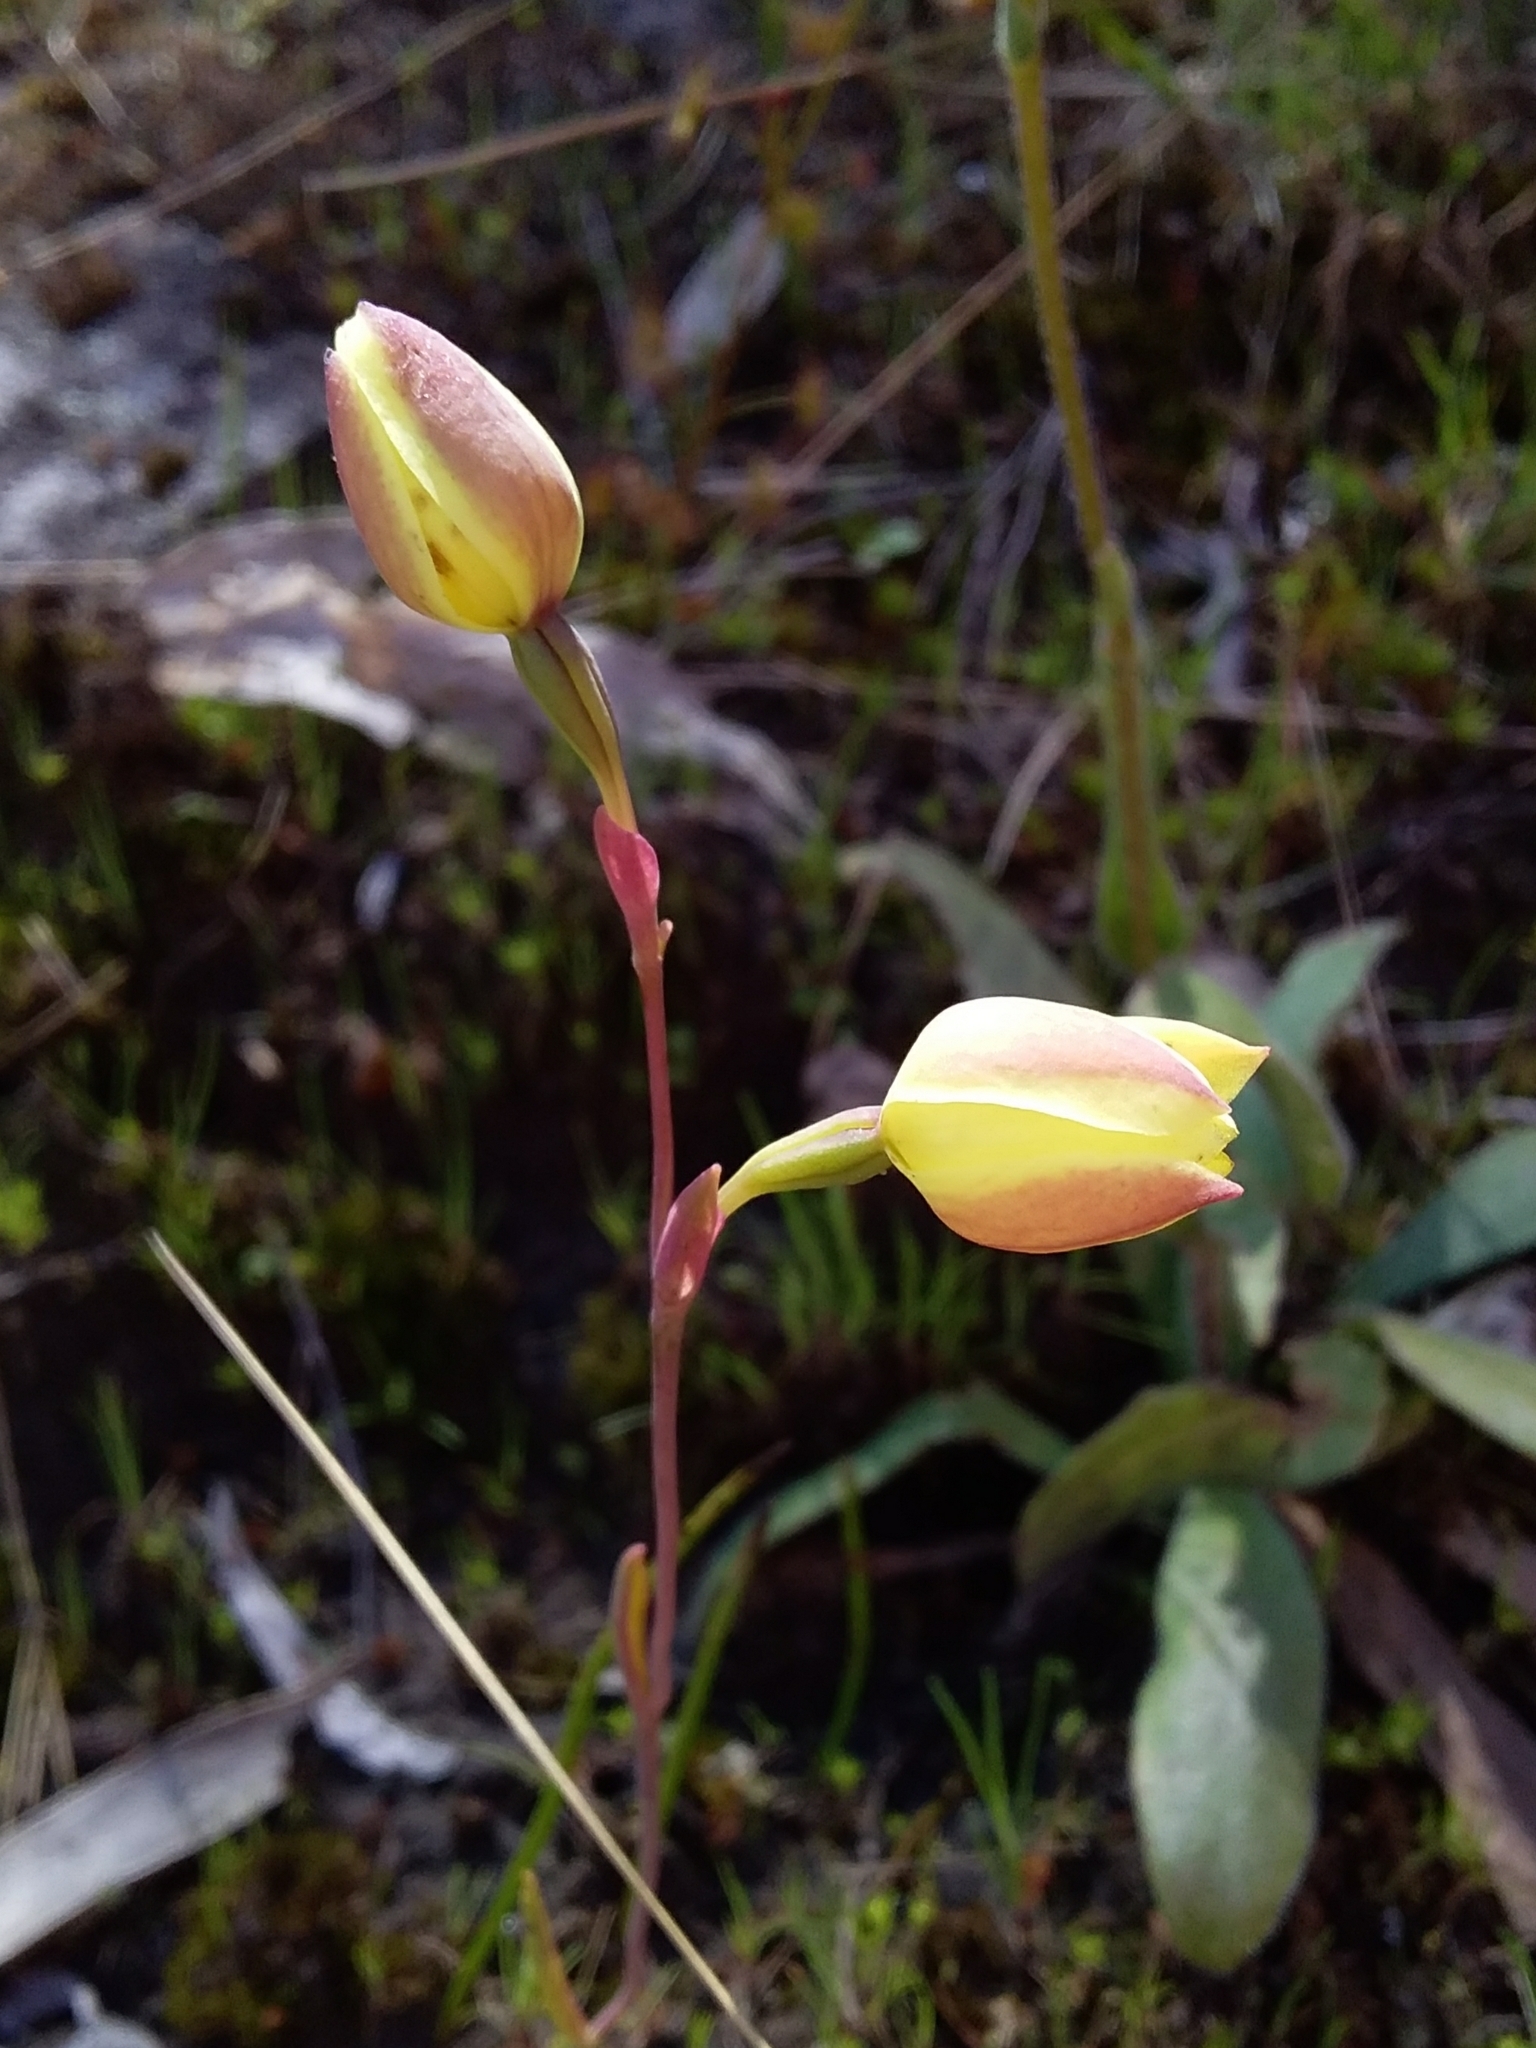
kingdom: Plantae
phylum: Tracheophyta
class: Liliopsida
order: Asparagales
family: Orchidaceae
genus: Thelymitra
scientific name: Thelymitra antennifera
